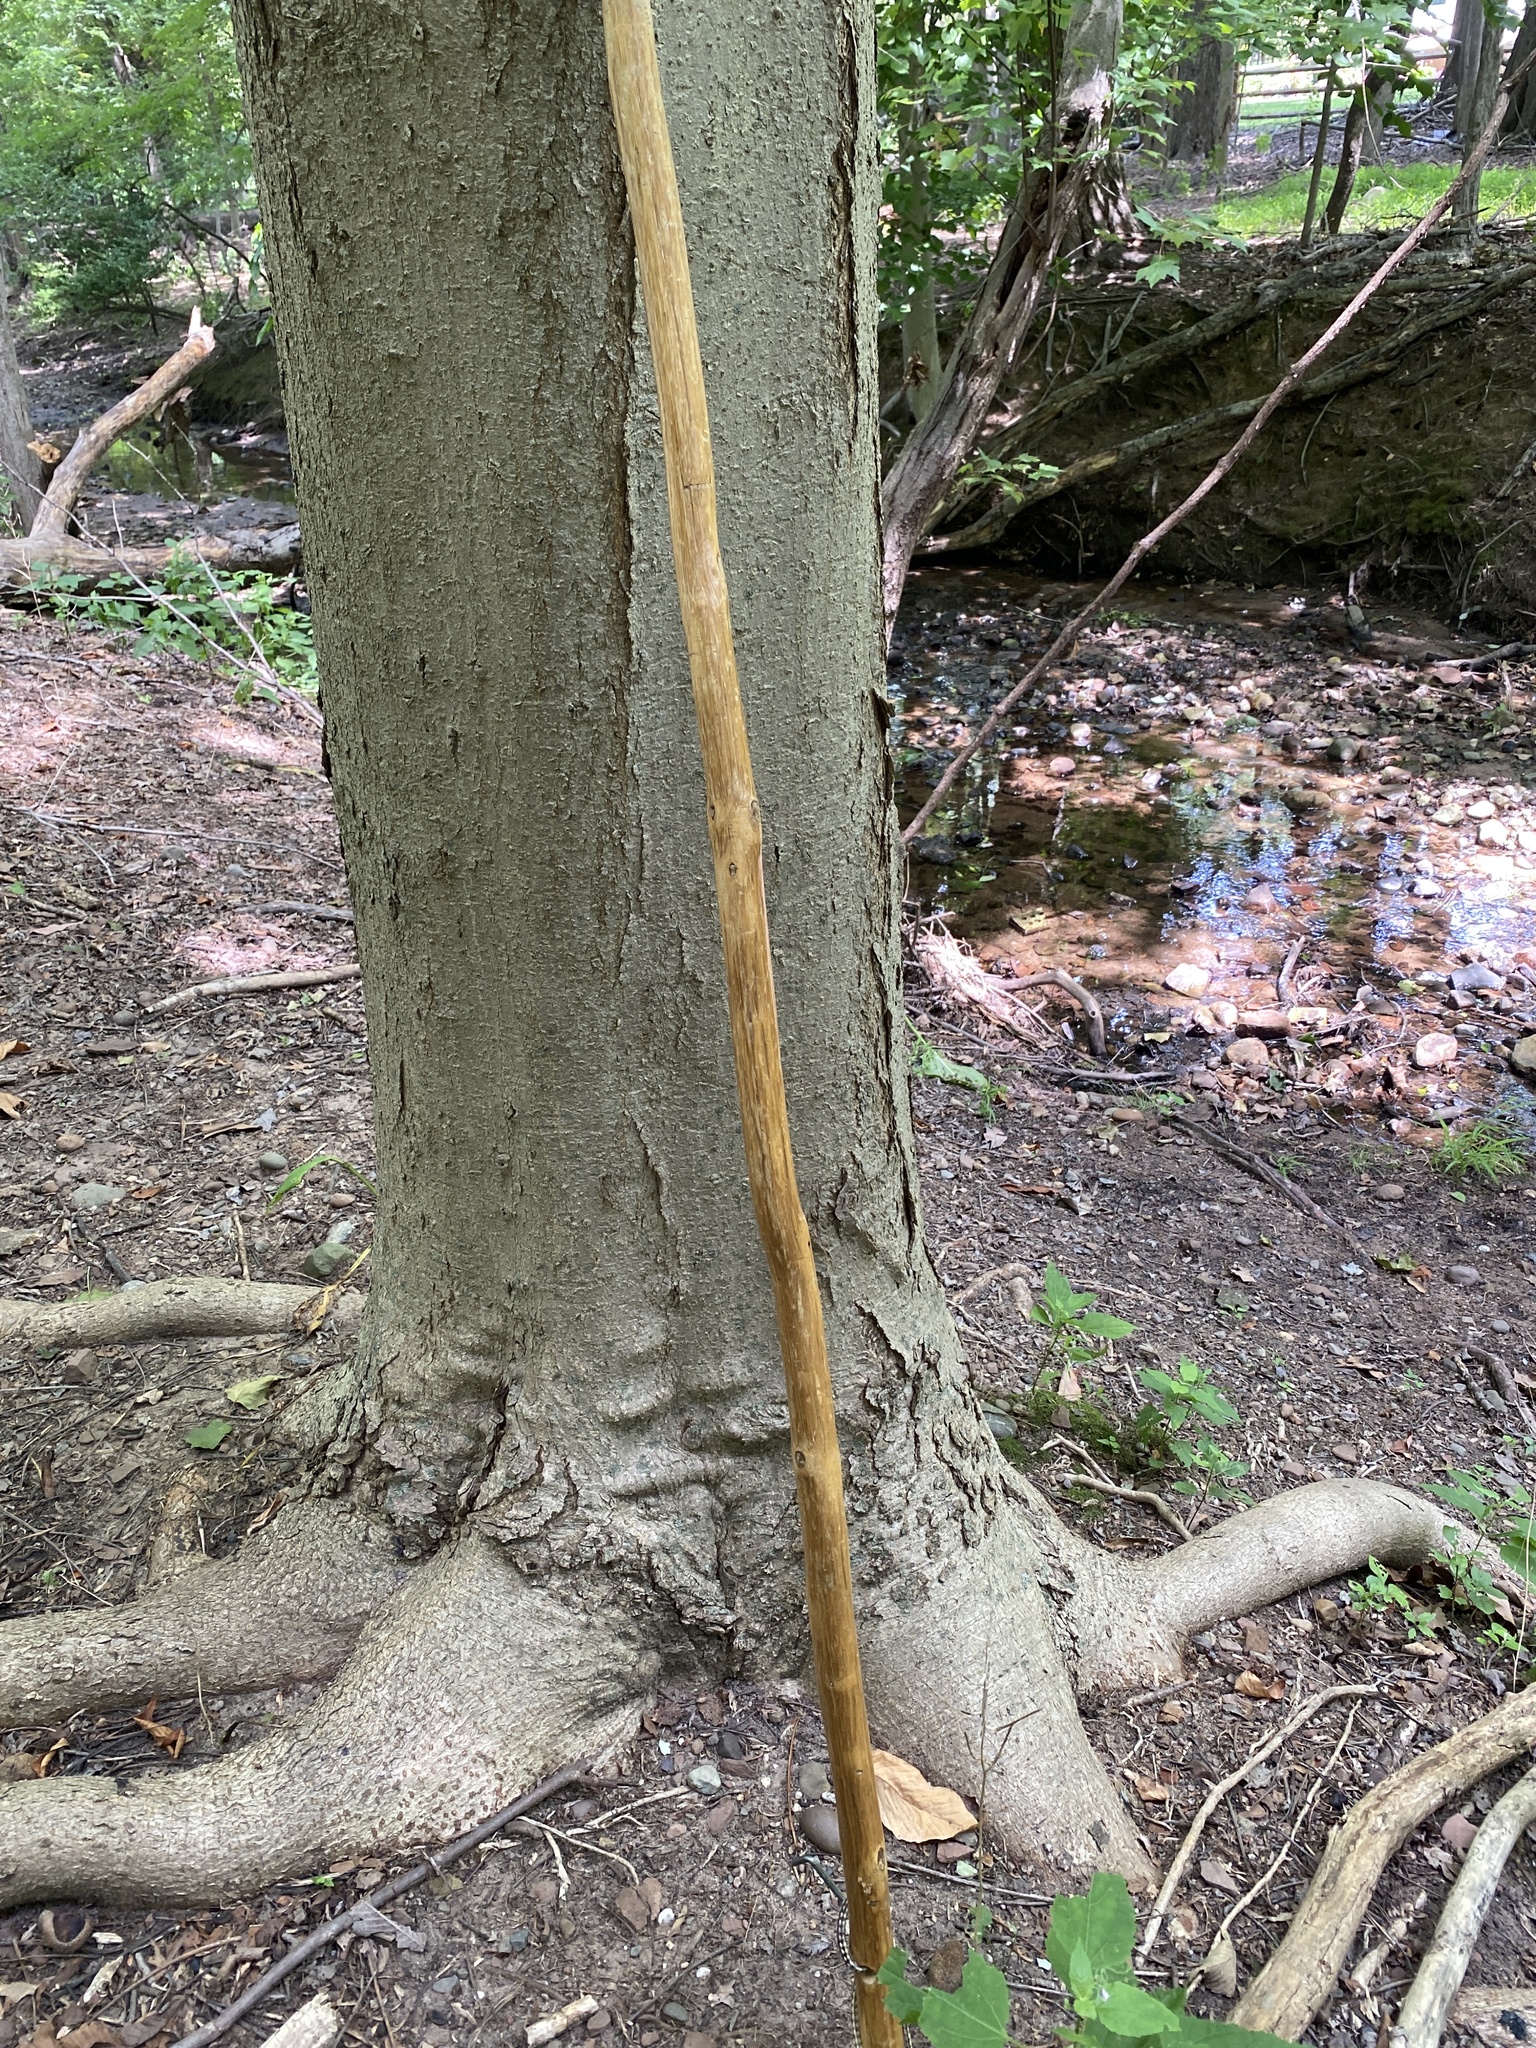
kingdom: Plantae
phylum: Tracheophyta
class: Magnoliopsida
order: Sapindales
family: Sapindaceae
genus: Aesculus
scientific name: Aesculus flava
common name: Yellow buckeye
